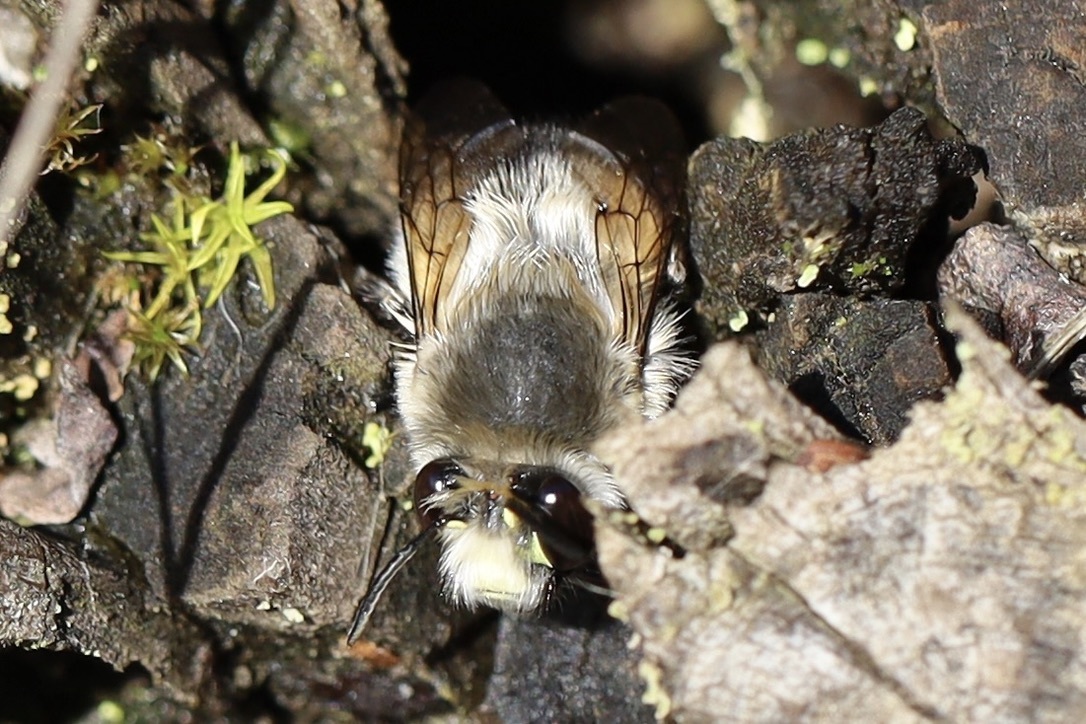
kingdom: Animalia
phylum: Arthropoda
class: Insecta
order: Hymenoptera
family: Apidae
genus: Anthophora
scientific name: Anthophora pacifica
